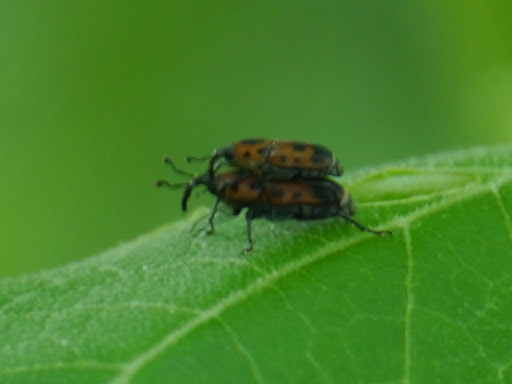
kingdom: Animalia
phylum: Arthropoda
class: Insecta
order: Coleoptera
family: Dryophthoridae
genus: Rhodobaenus
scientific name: Rhodobaenus quinquepunctatus
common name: Cocklebur weevil
